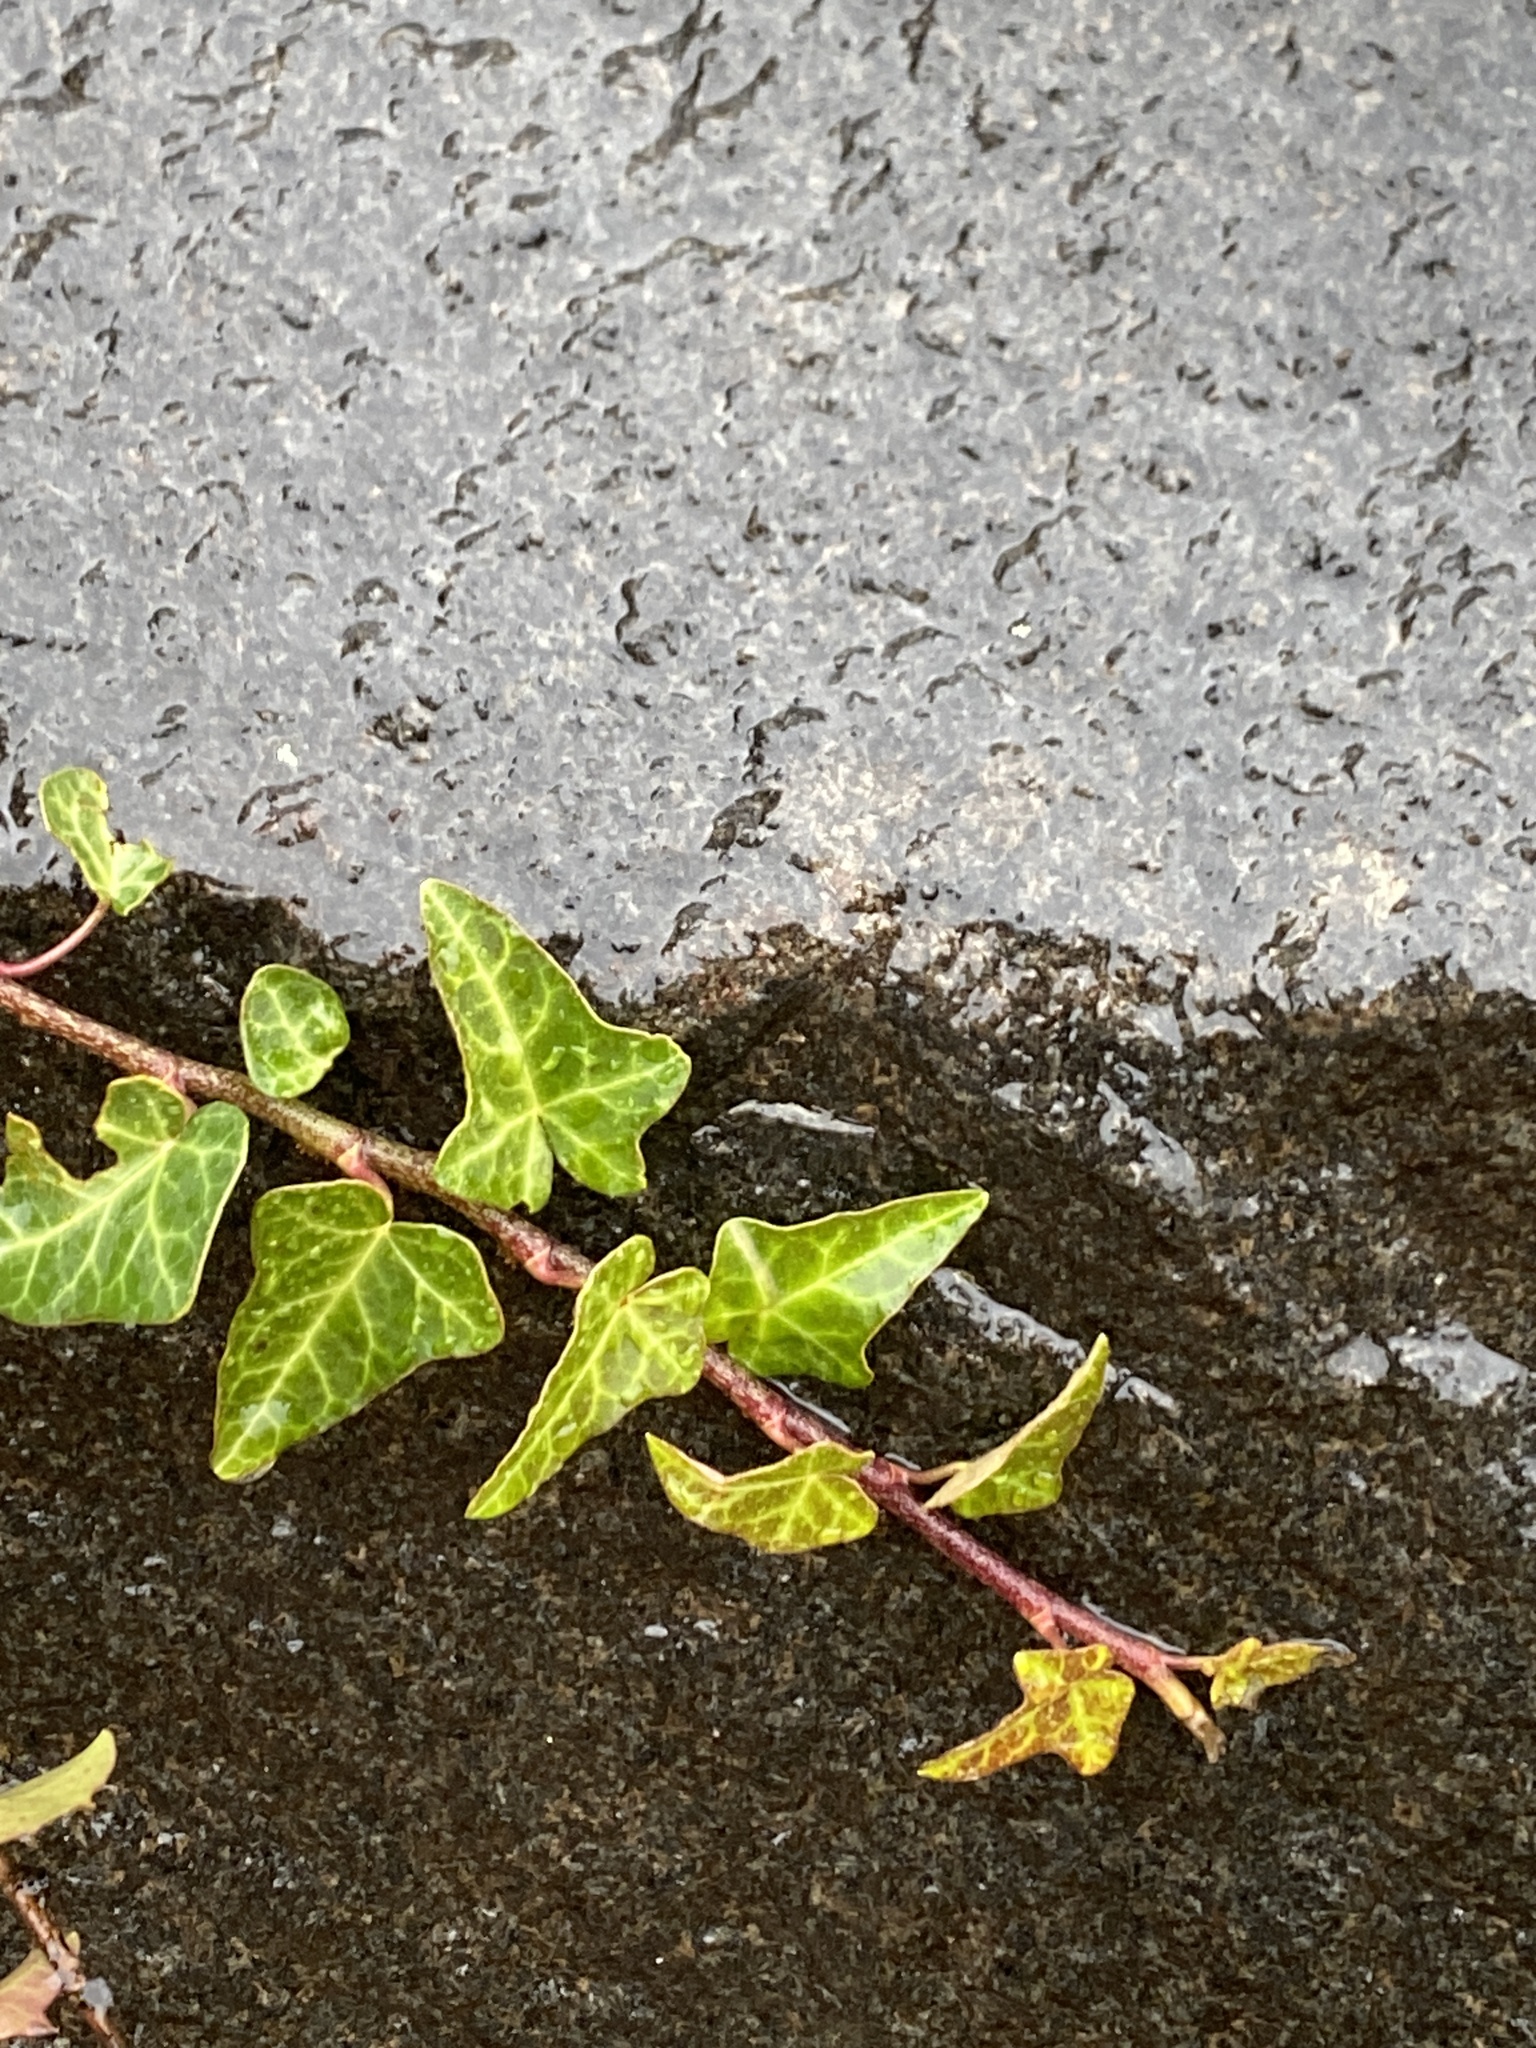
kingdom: Plantae
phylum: Tracheophyta
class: Magnoliopsida
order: Apiales
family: Araliaceae
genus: Hedera
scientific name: Hedera
